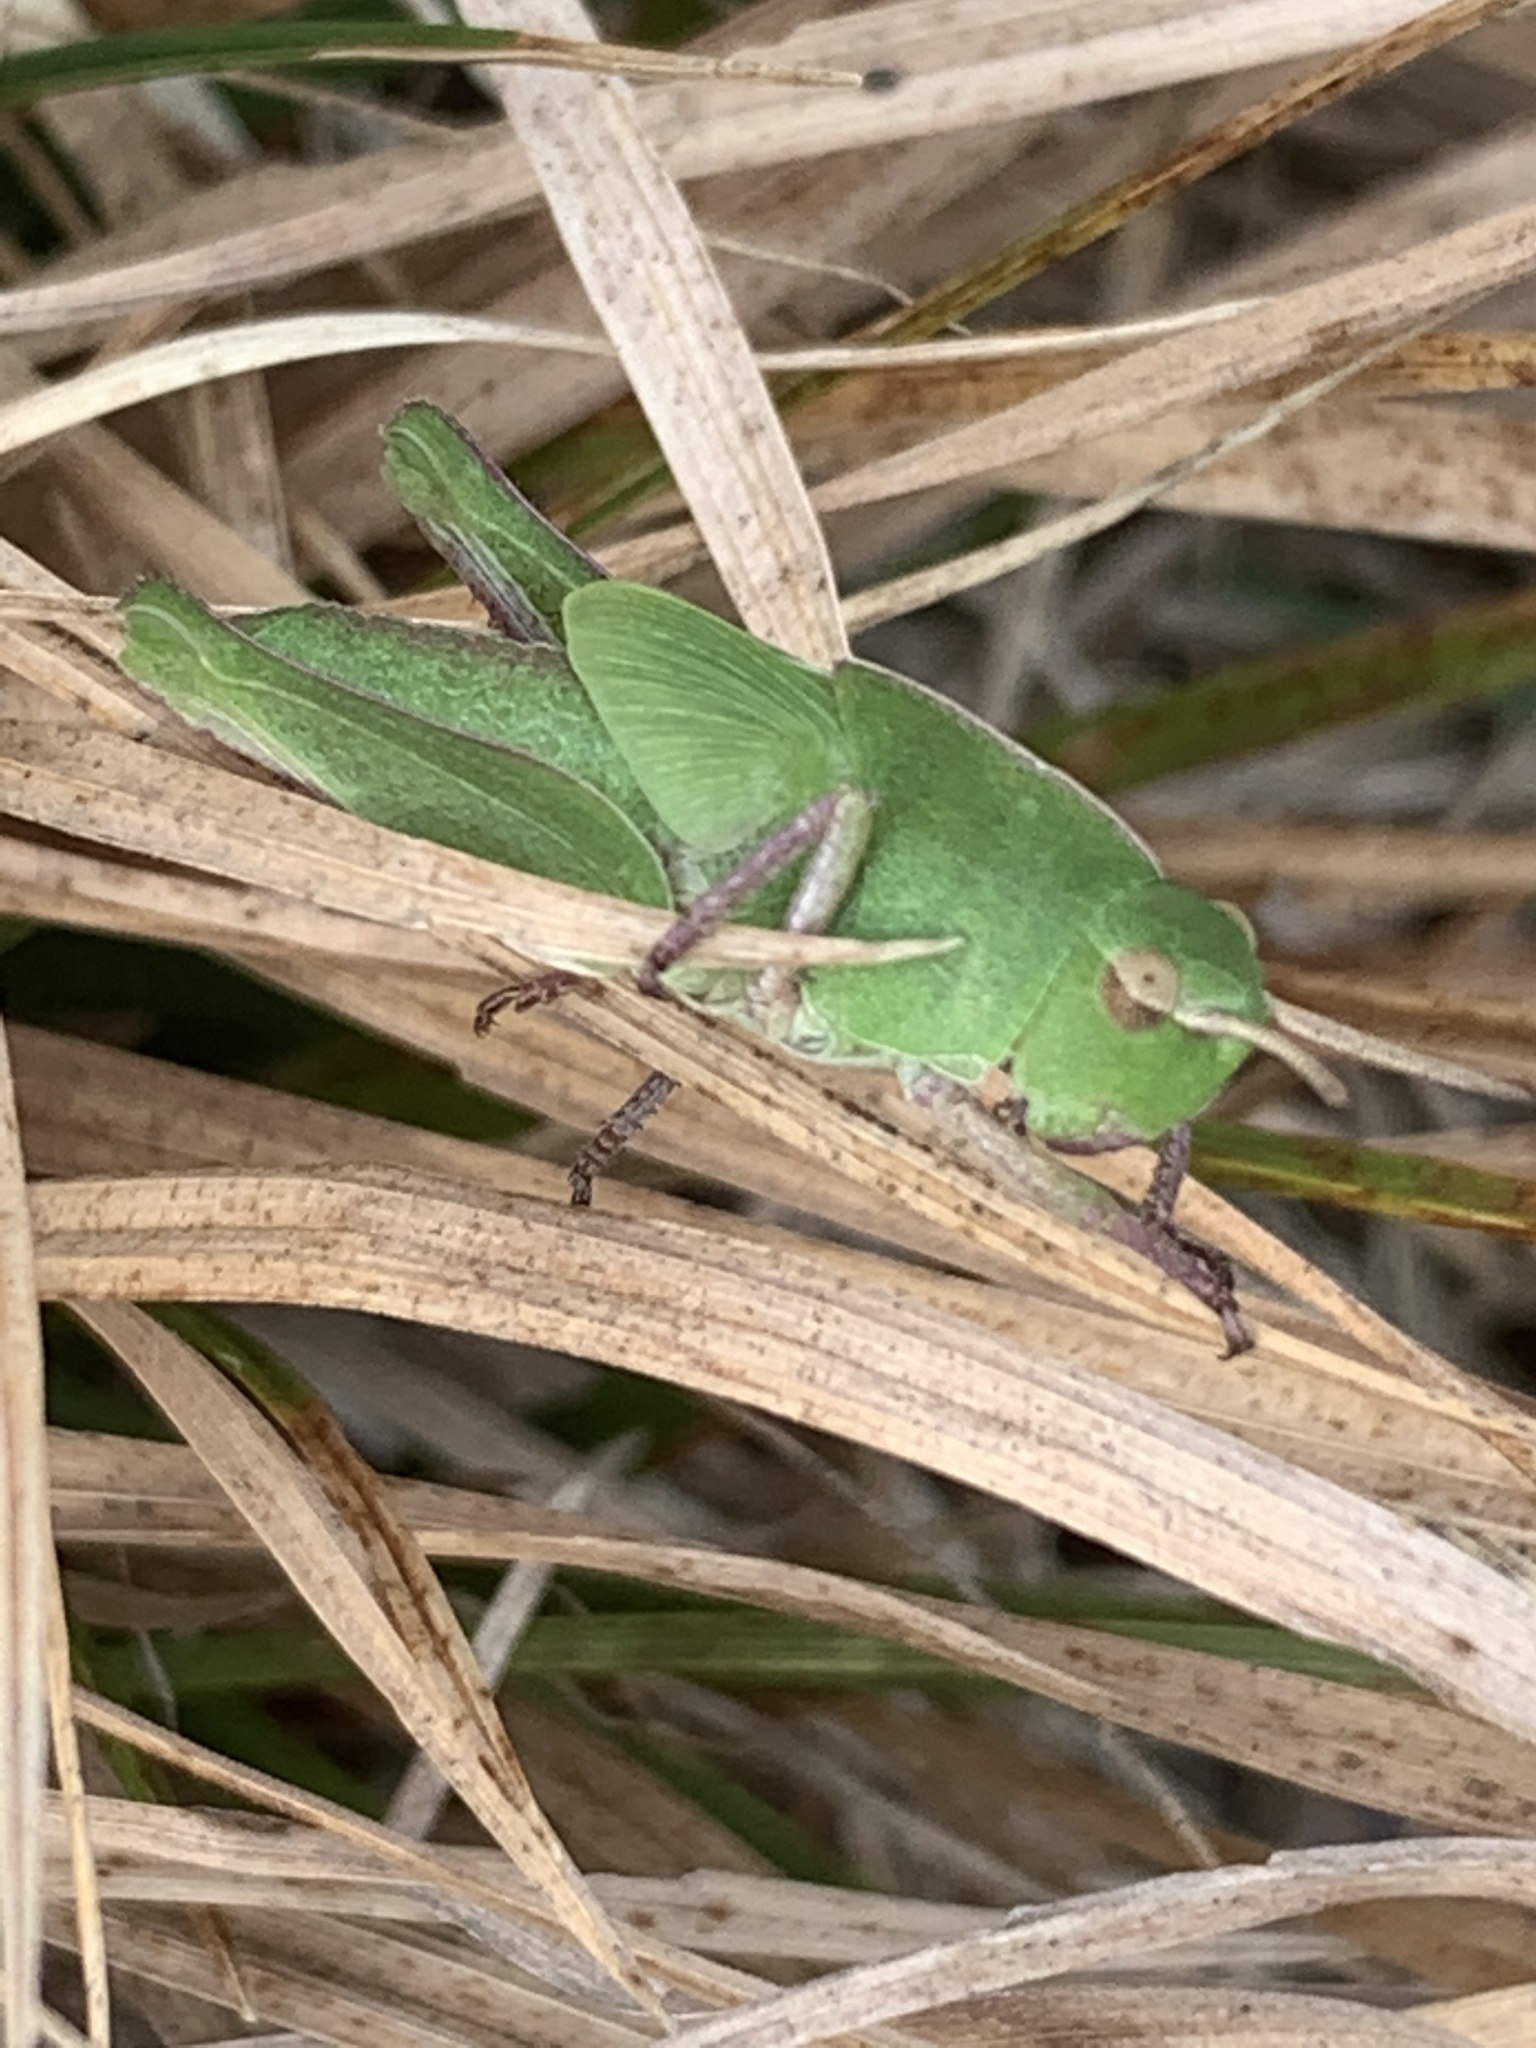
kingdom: Animalia
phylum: Arthropoda
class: Insecta
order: Orthoptera
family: Acrididae
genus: Chortophaga
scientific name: Chortophaga viridifasciata
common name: Green-striped grasshopper
